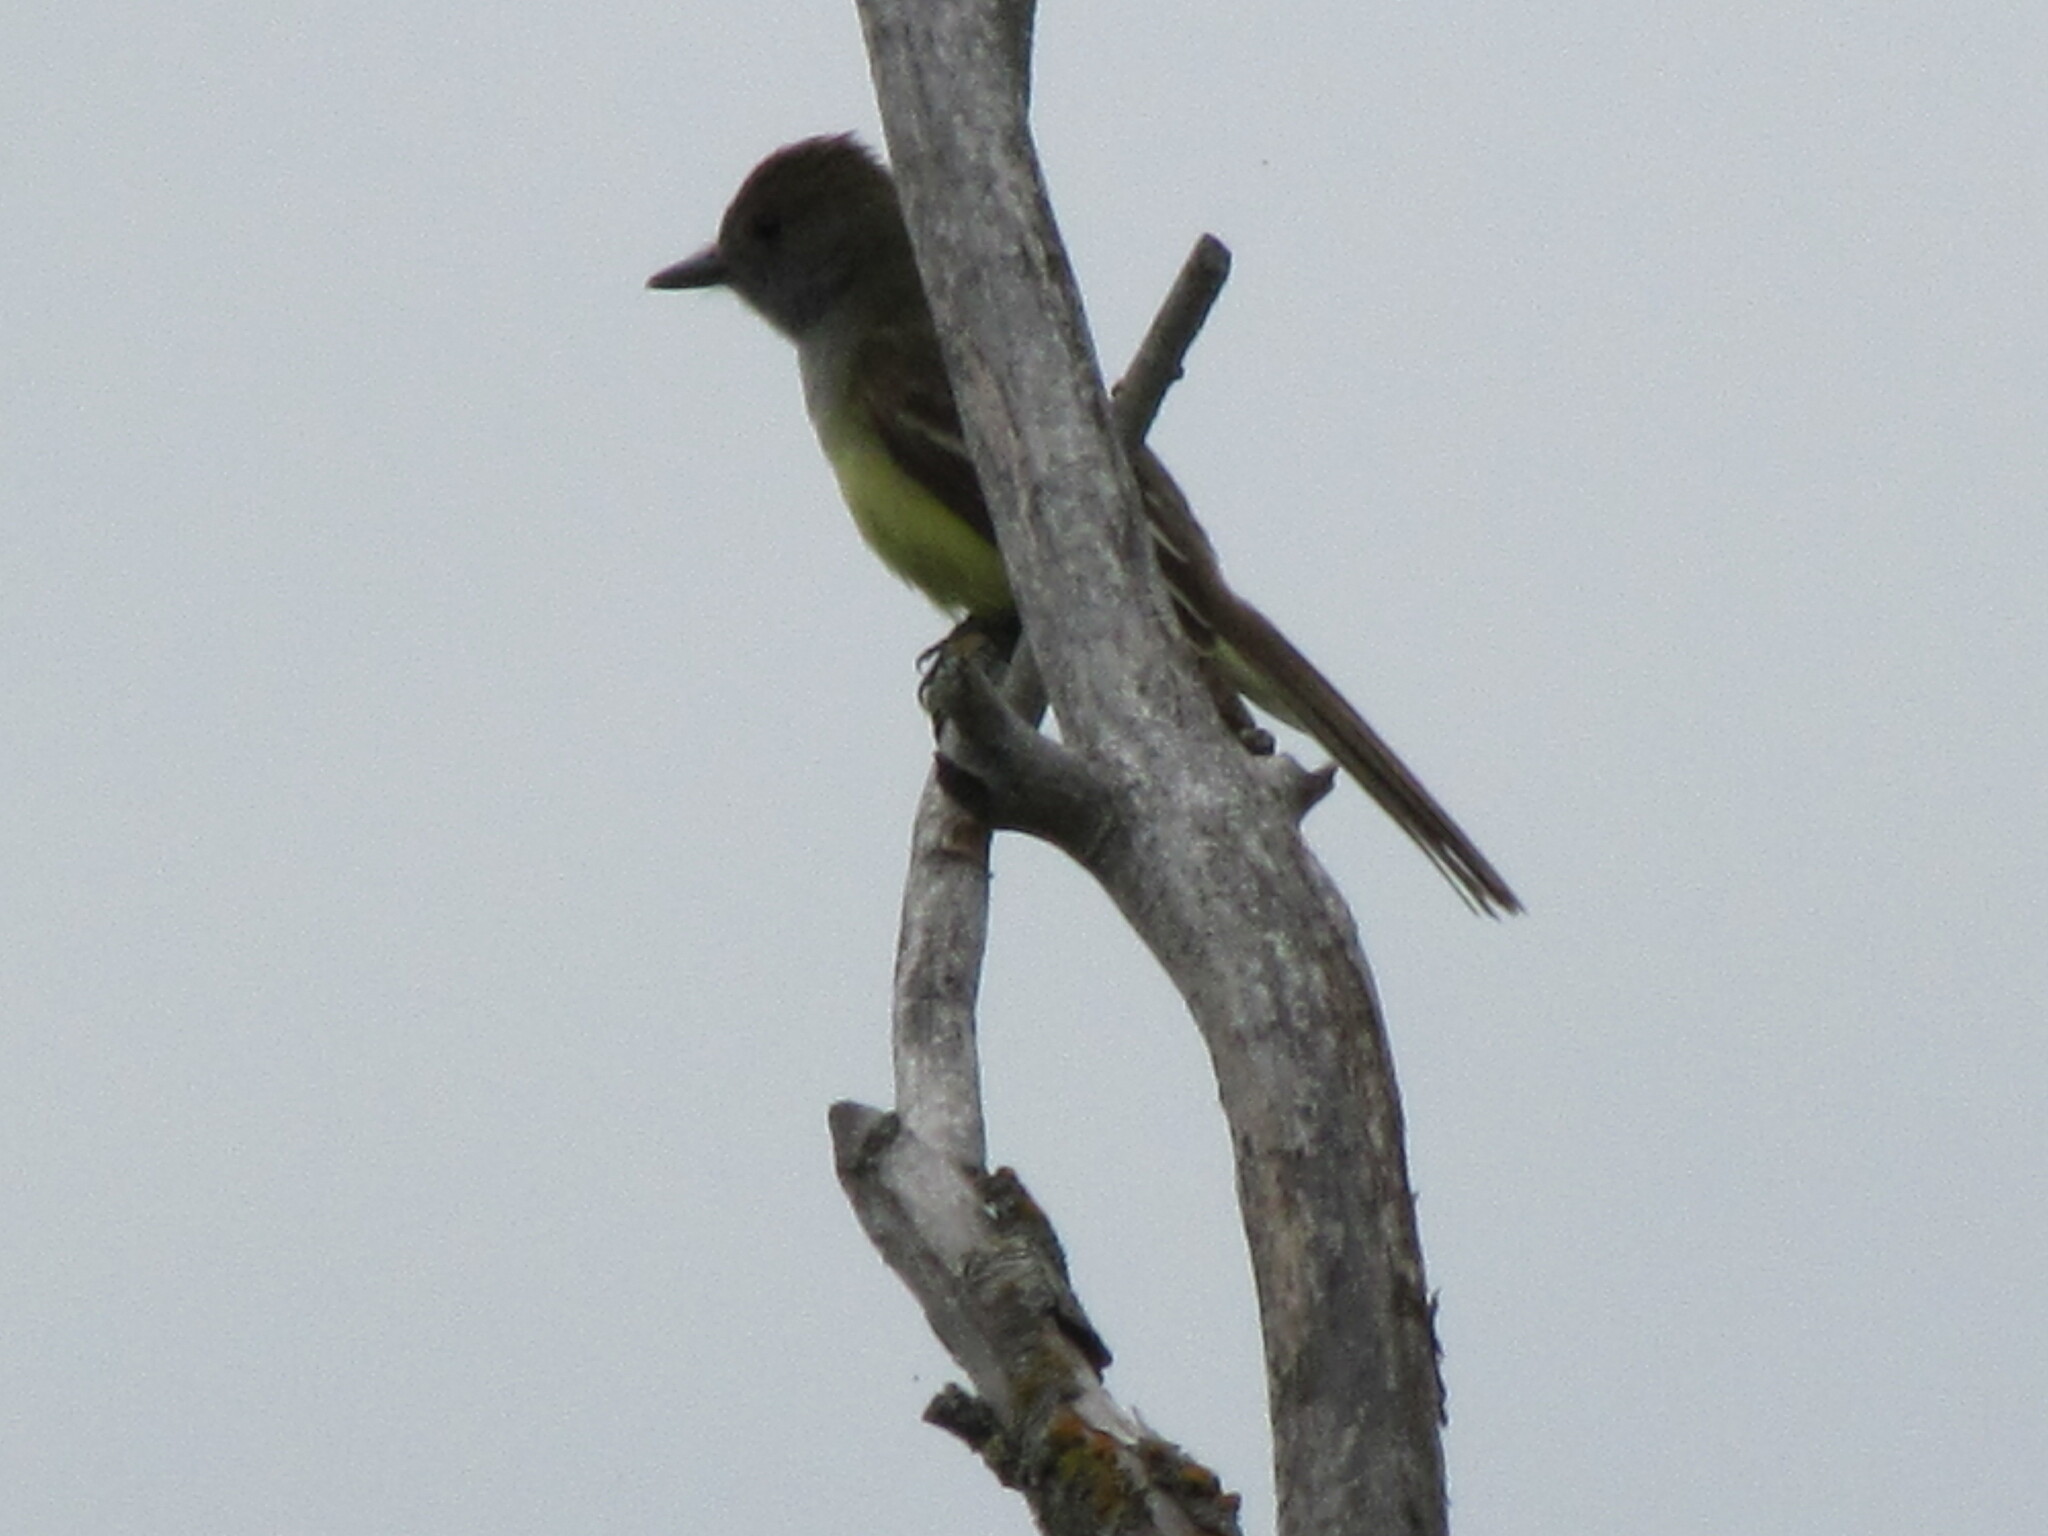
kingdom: Animalia
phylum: Chordata
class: Aves
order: Passeriformes
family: Tyrannidae
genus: Myiarchus
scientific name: Myiarchus crinitus
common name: Great crested flycatcher
